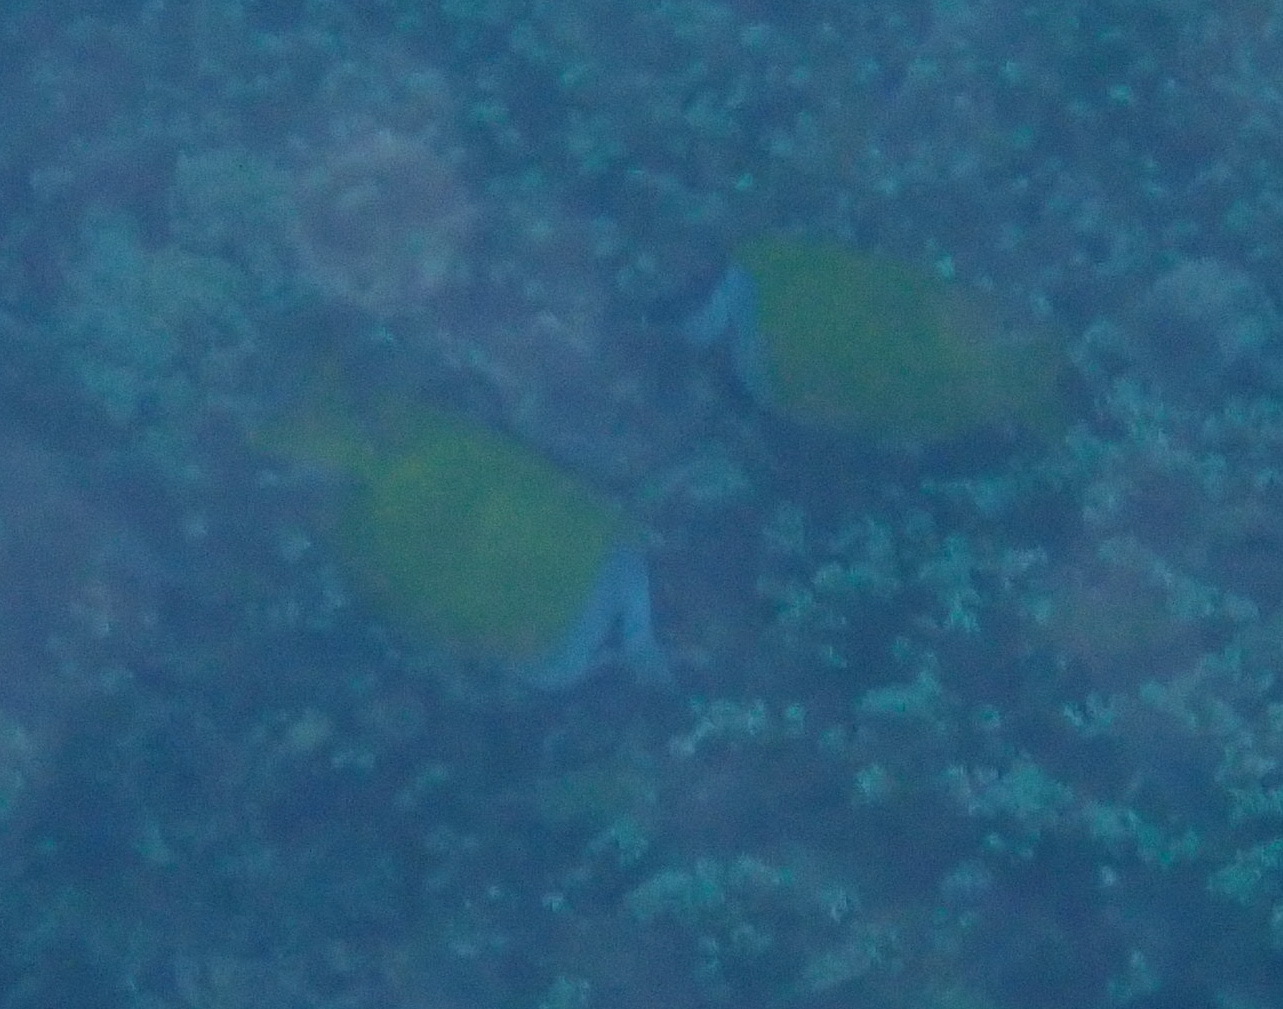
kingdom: Animalia
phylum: Chordata
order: Perciformes
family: Siganidae
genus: Siganus
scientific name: Siganus vulpinus
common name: Foxface
